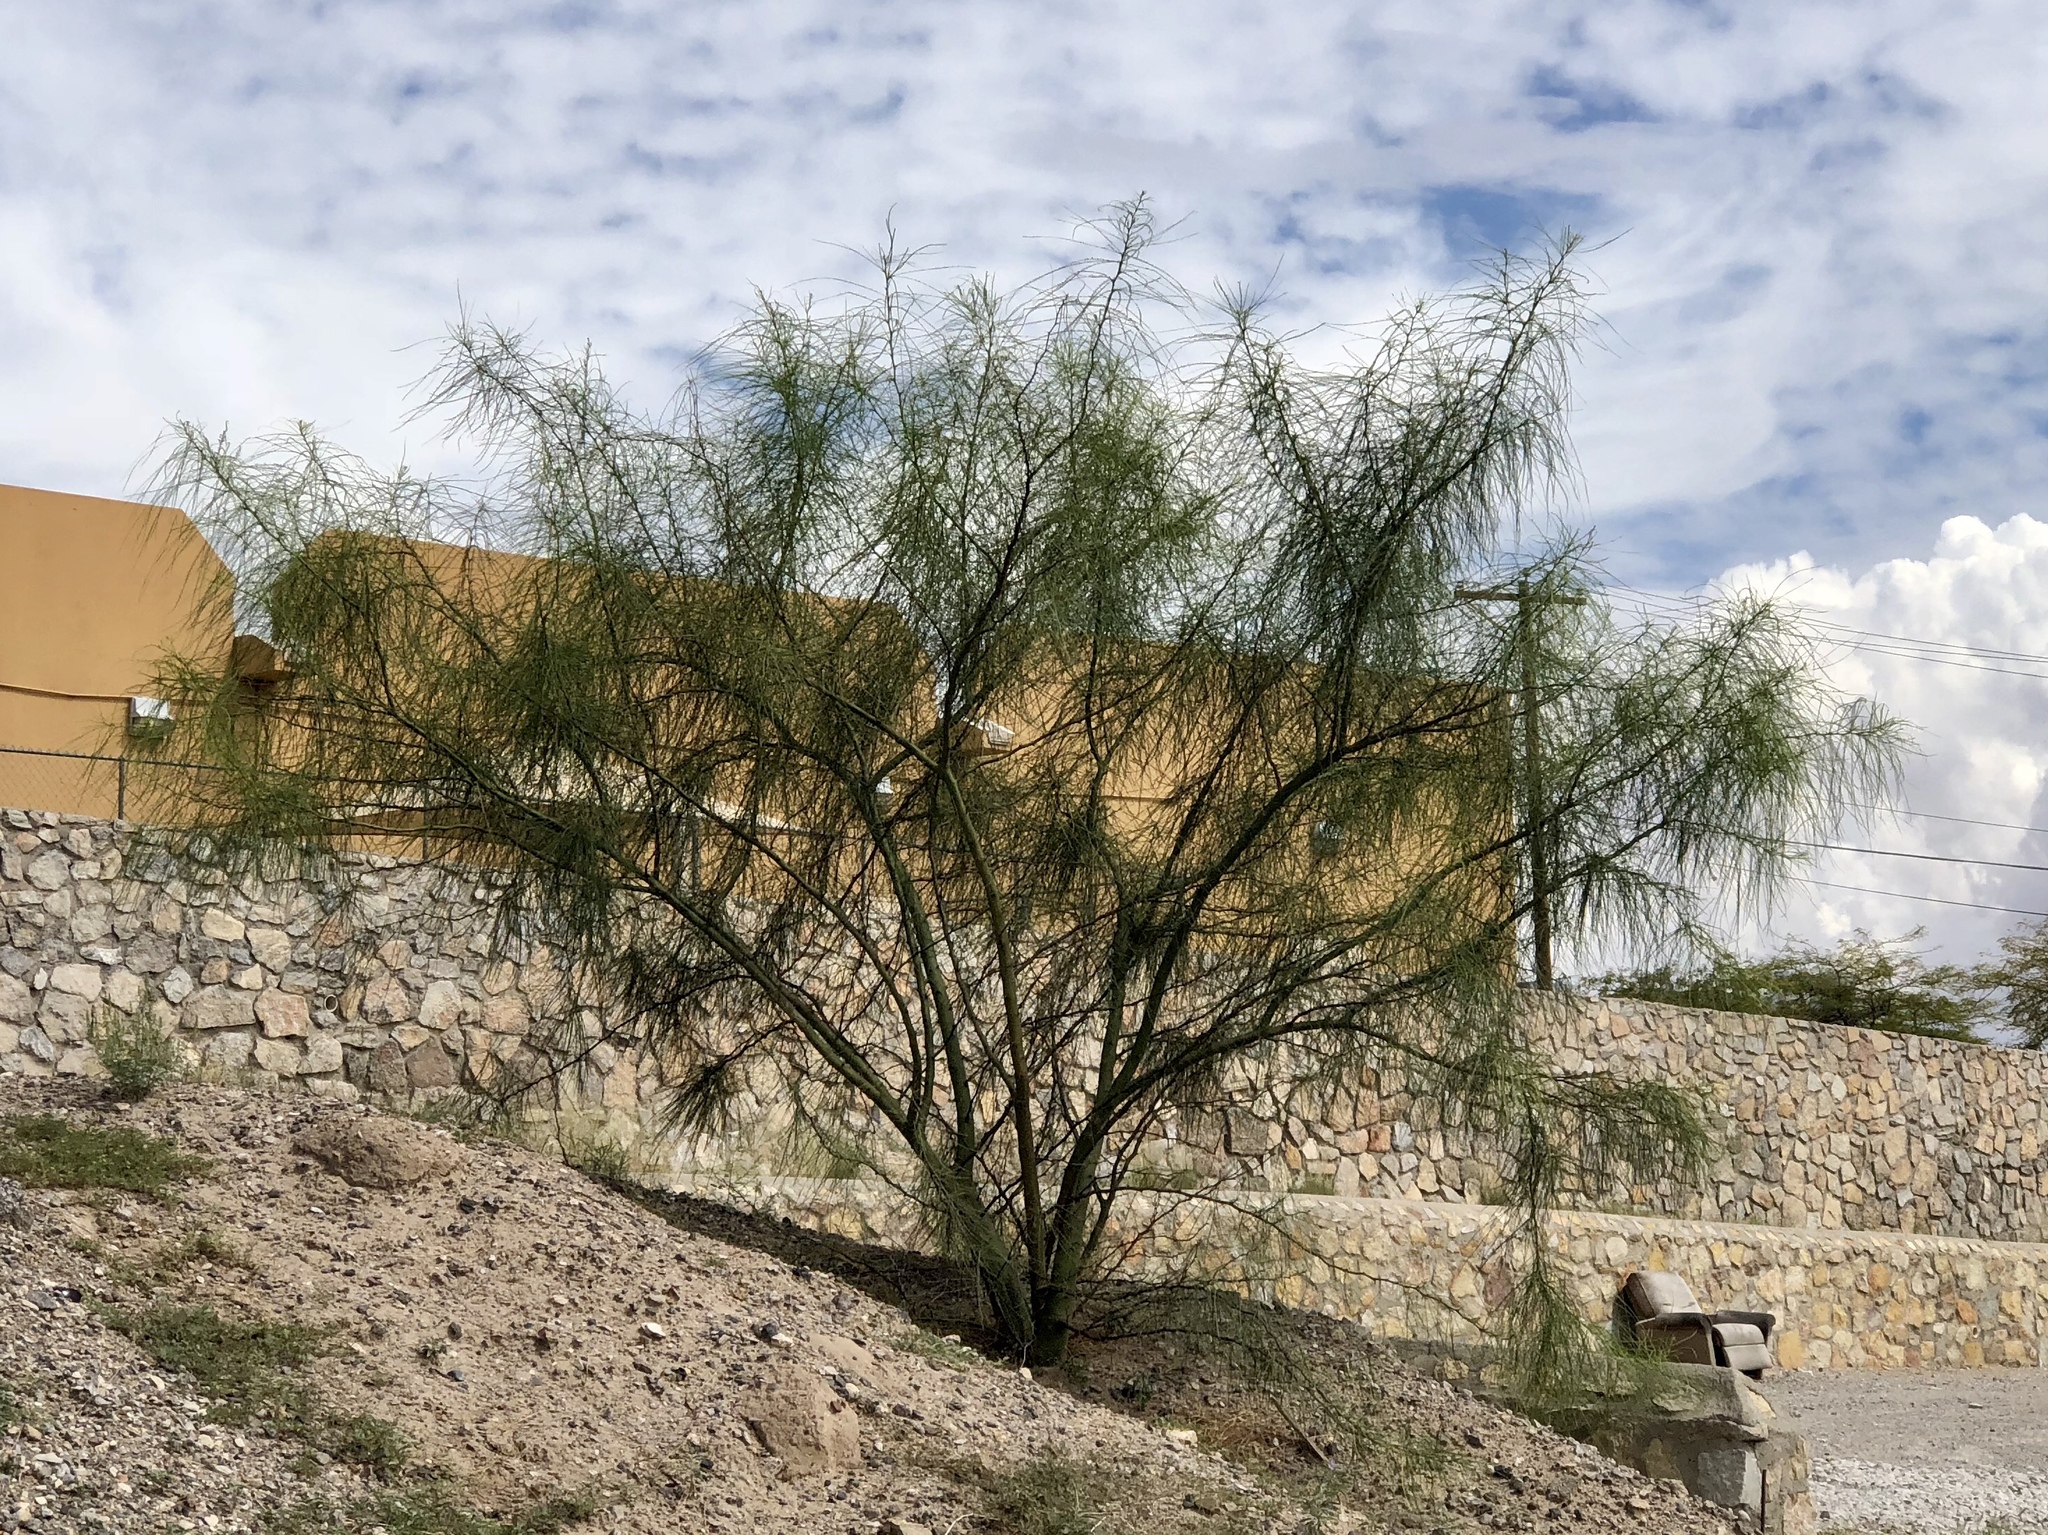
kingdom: Plantae
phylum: Tracheophyta
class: Magnoliopsida
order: Fabales
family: Fabaceae
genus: Parkinsonia
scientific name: Parkinsonia aculeata
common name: Jerusalem thorn
